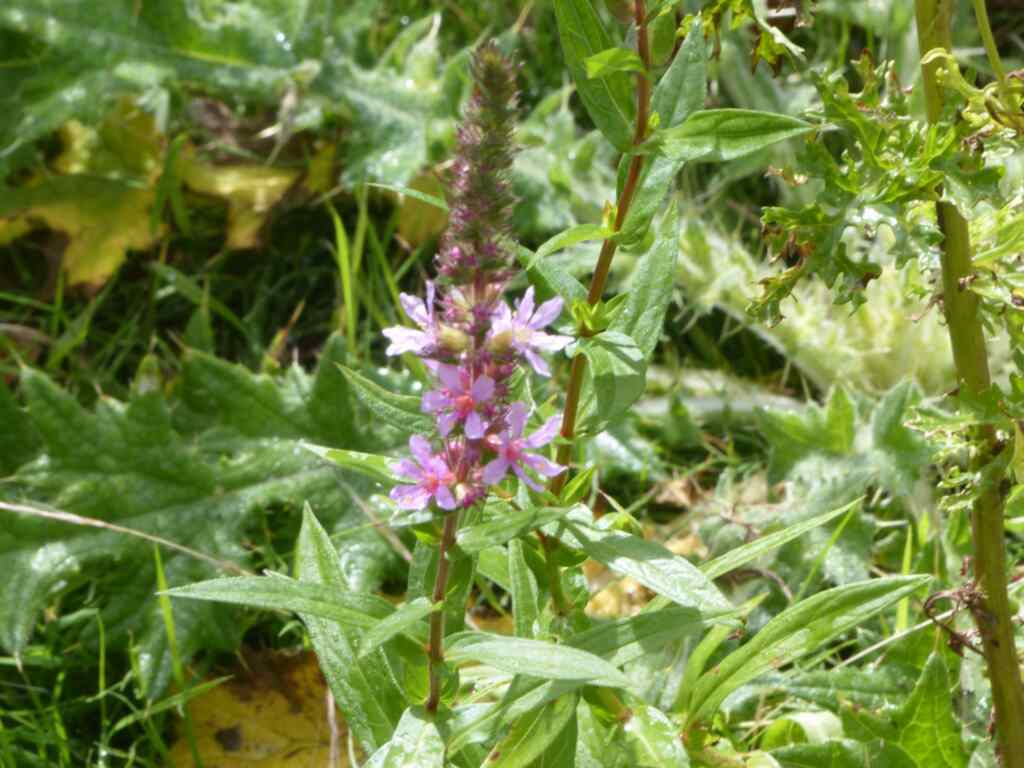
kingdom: Plantae
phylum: Tracheophyta
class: Magnoliopsida
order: Myrtales
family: Lythraceae
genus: Lythrum
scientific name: Lythrum salicaria
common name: Purple loosestrife
